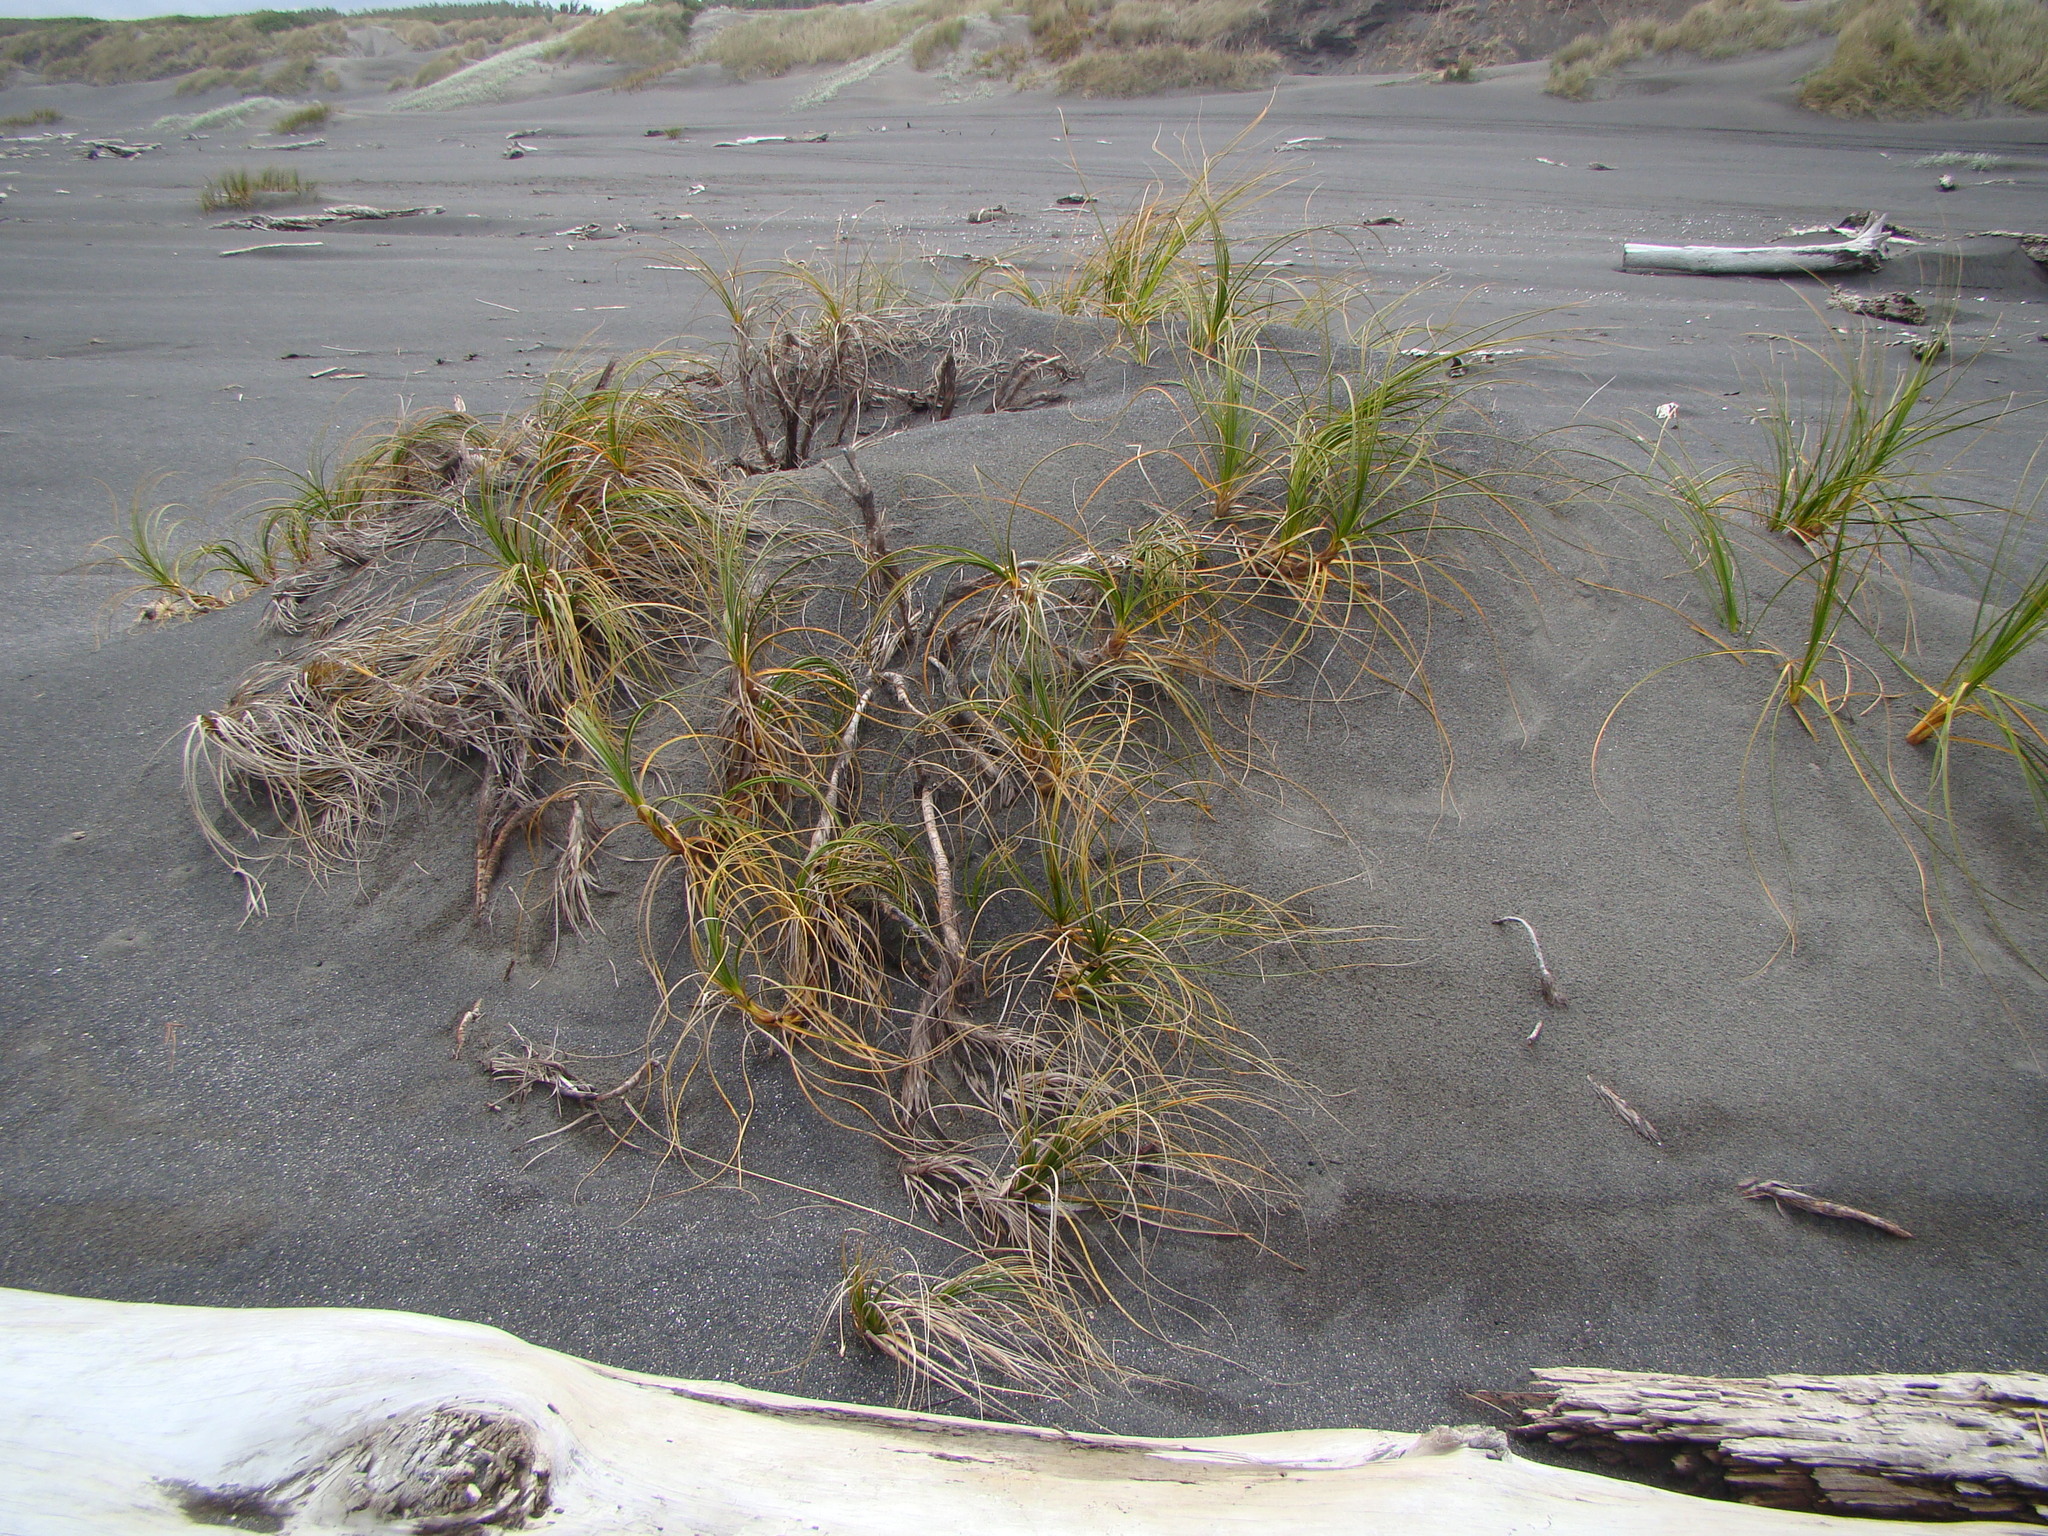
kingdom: Plantae
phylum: Tracheophyta
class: Liliopsida
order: Poales
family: Cyperaceae
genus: Ficinia
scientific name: Ficinia spiralis
